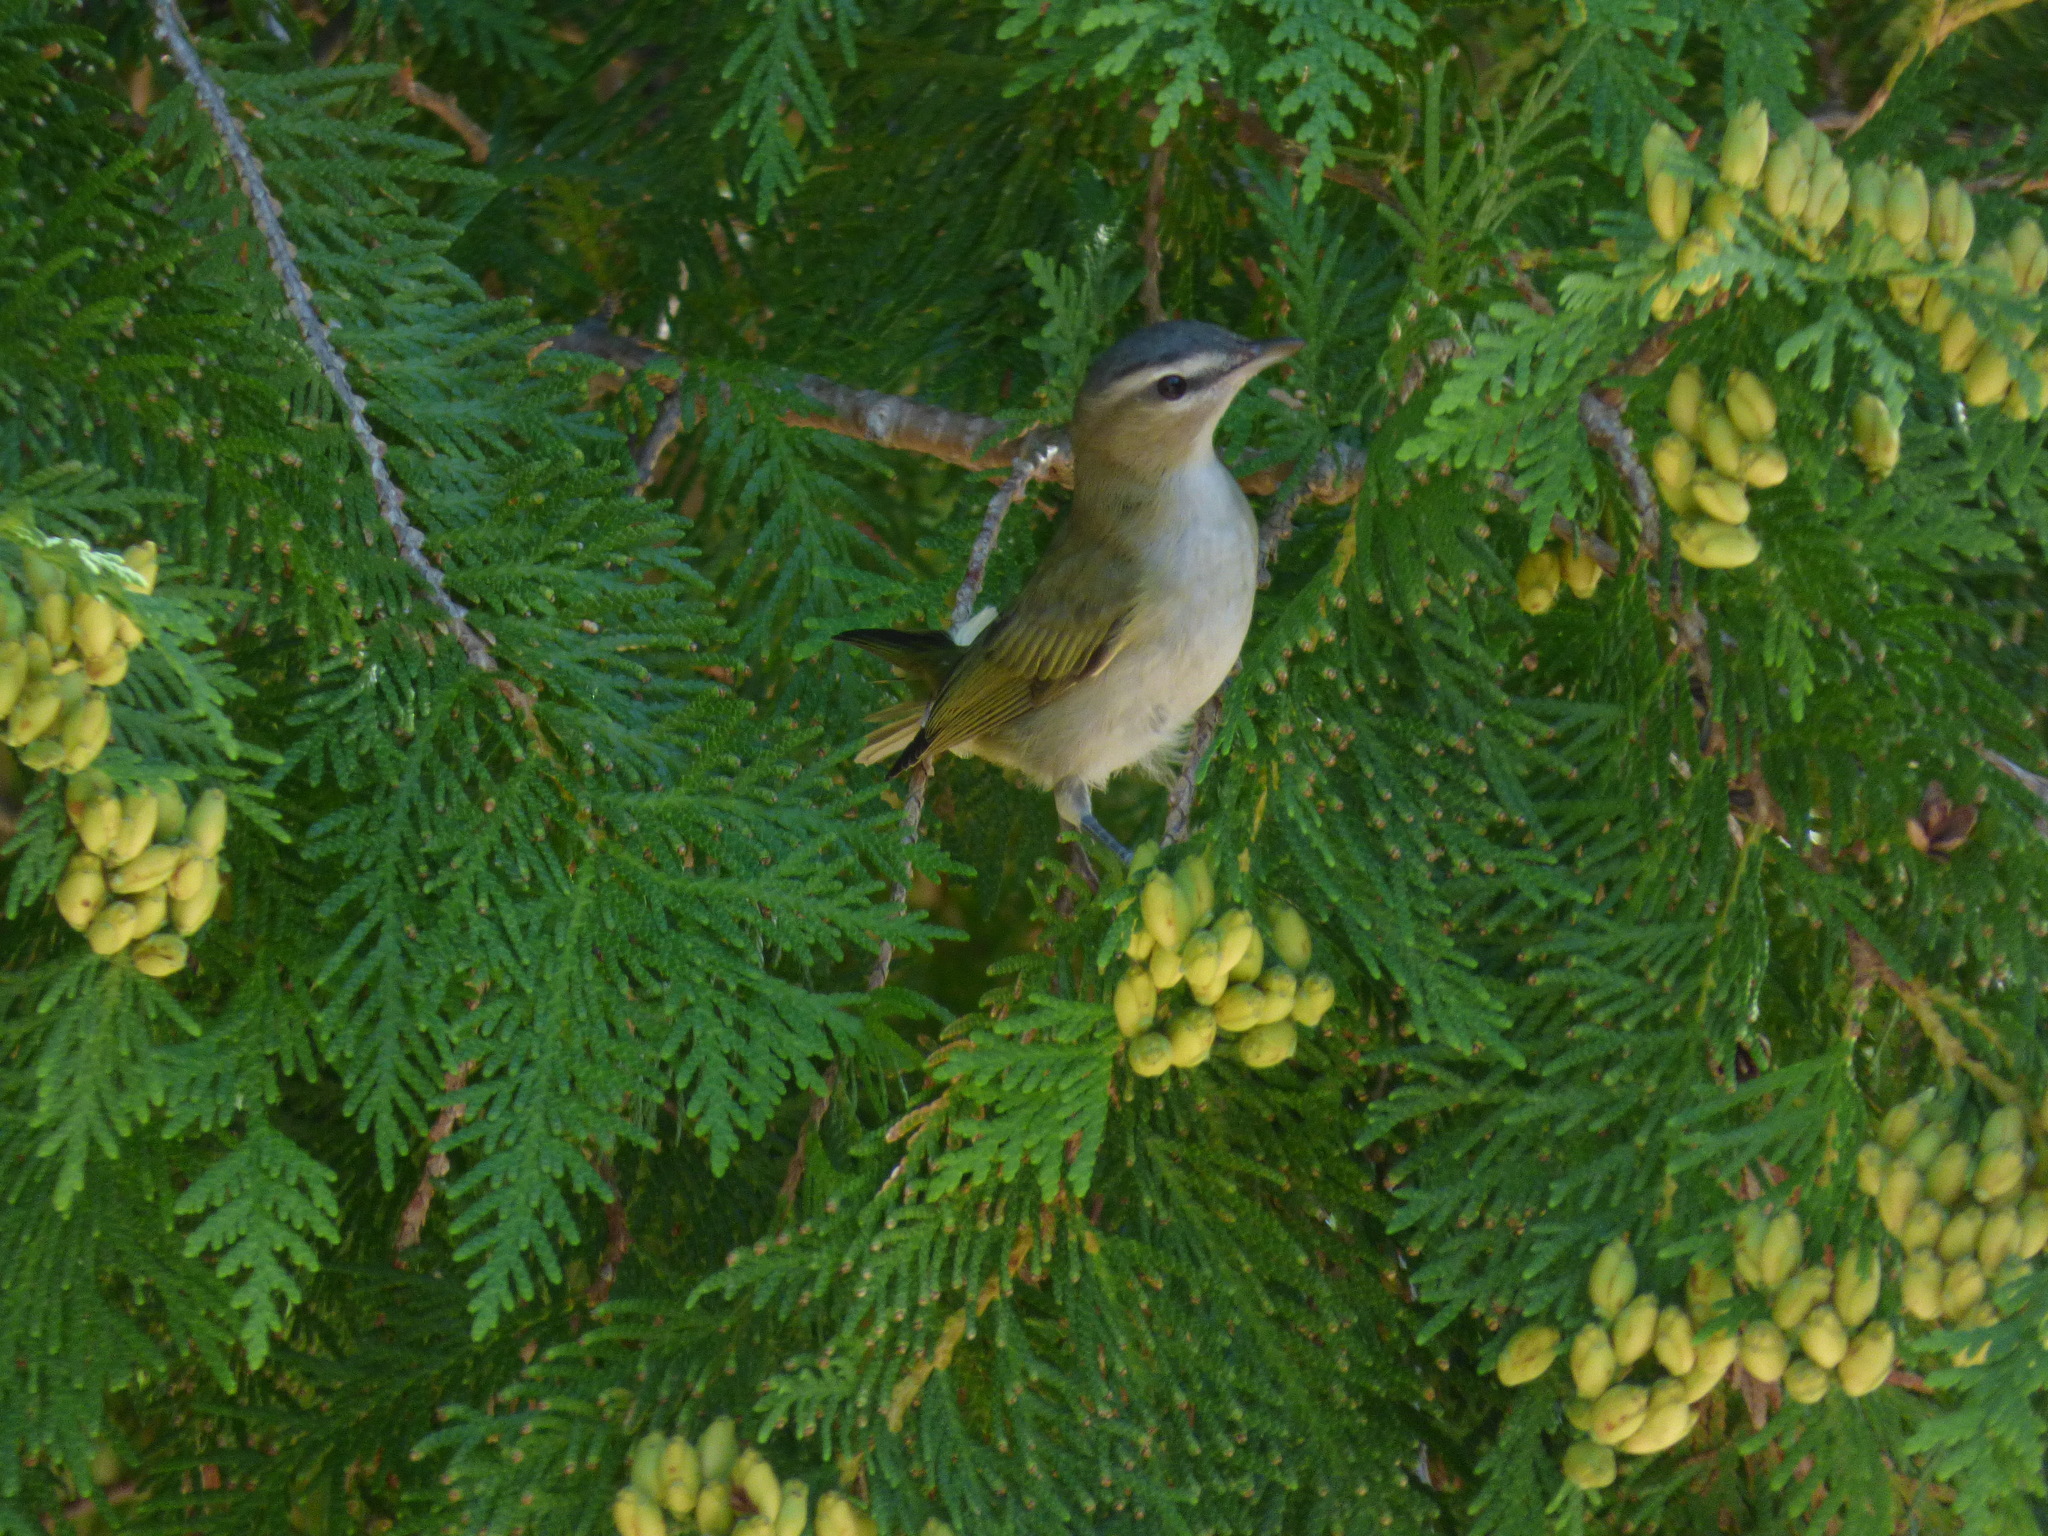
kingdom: Animalia
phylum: Chordata
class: Aves
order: Passeriformes
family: Vireonidae
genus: Vireo
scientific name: Vireo olivaceus
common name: Red-eyed vireo
